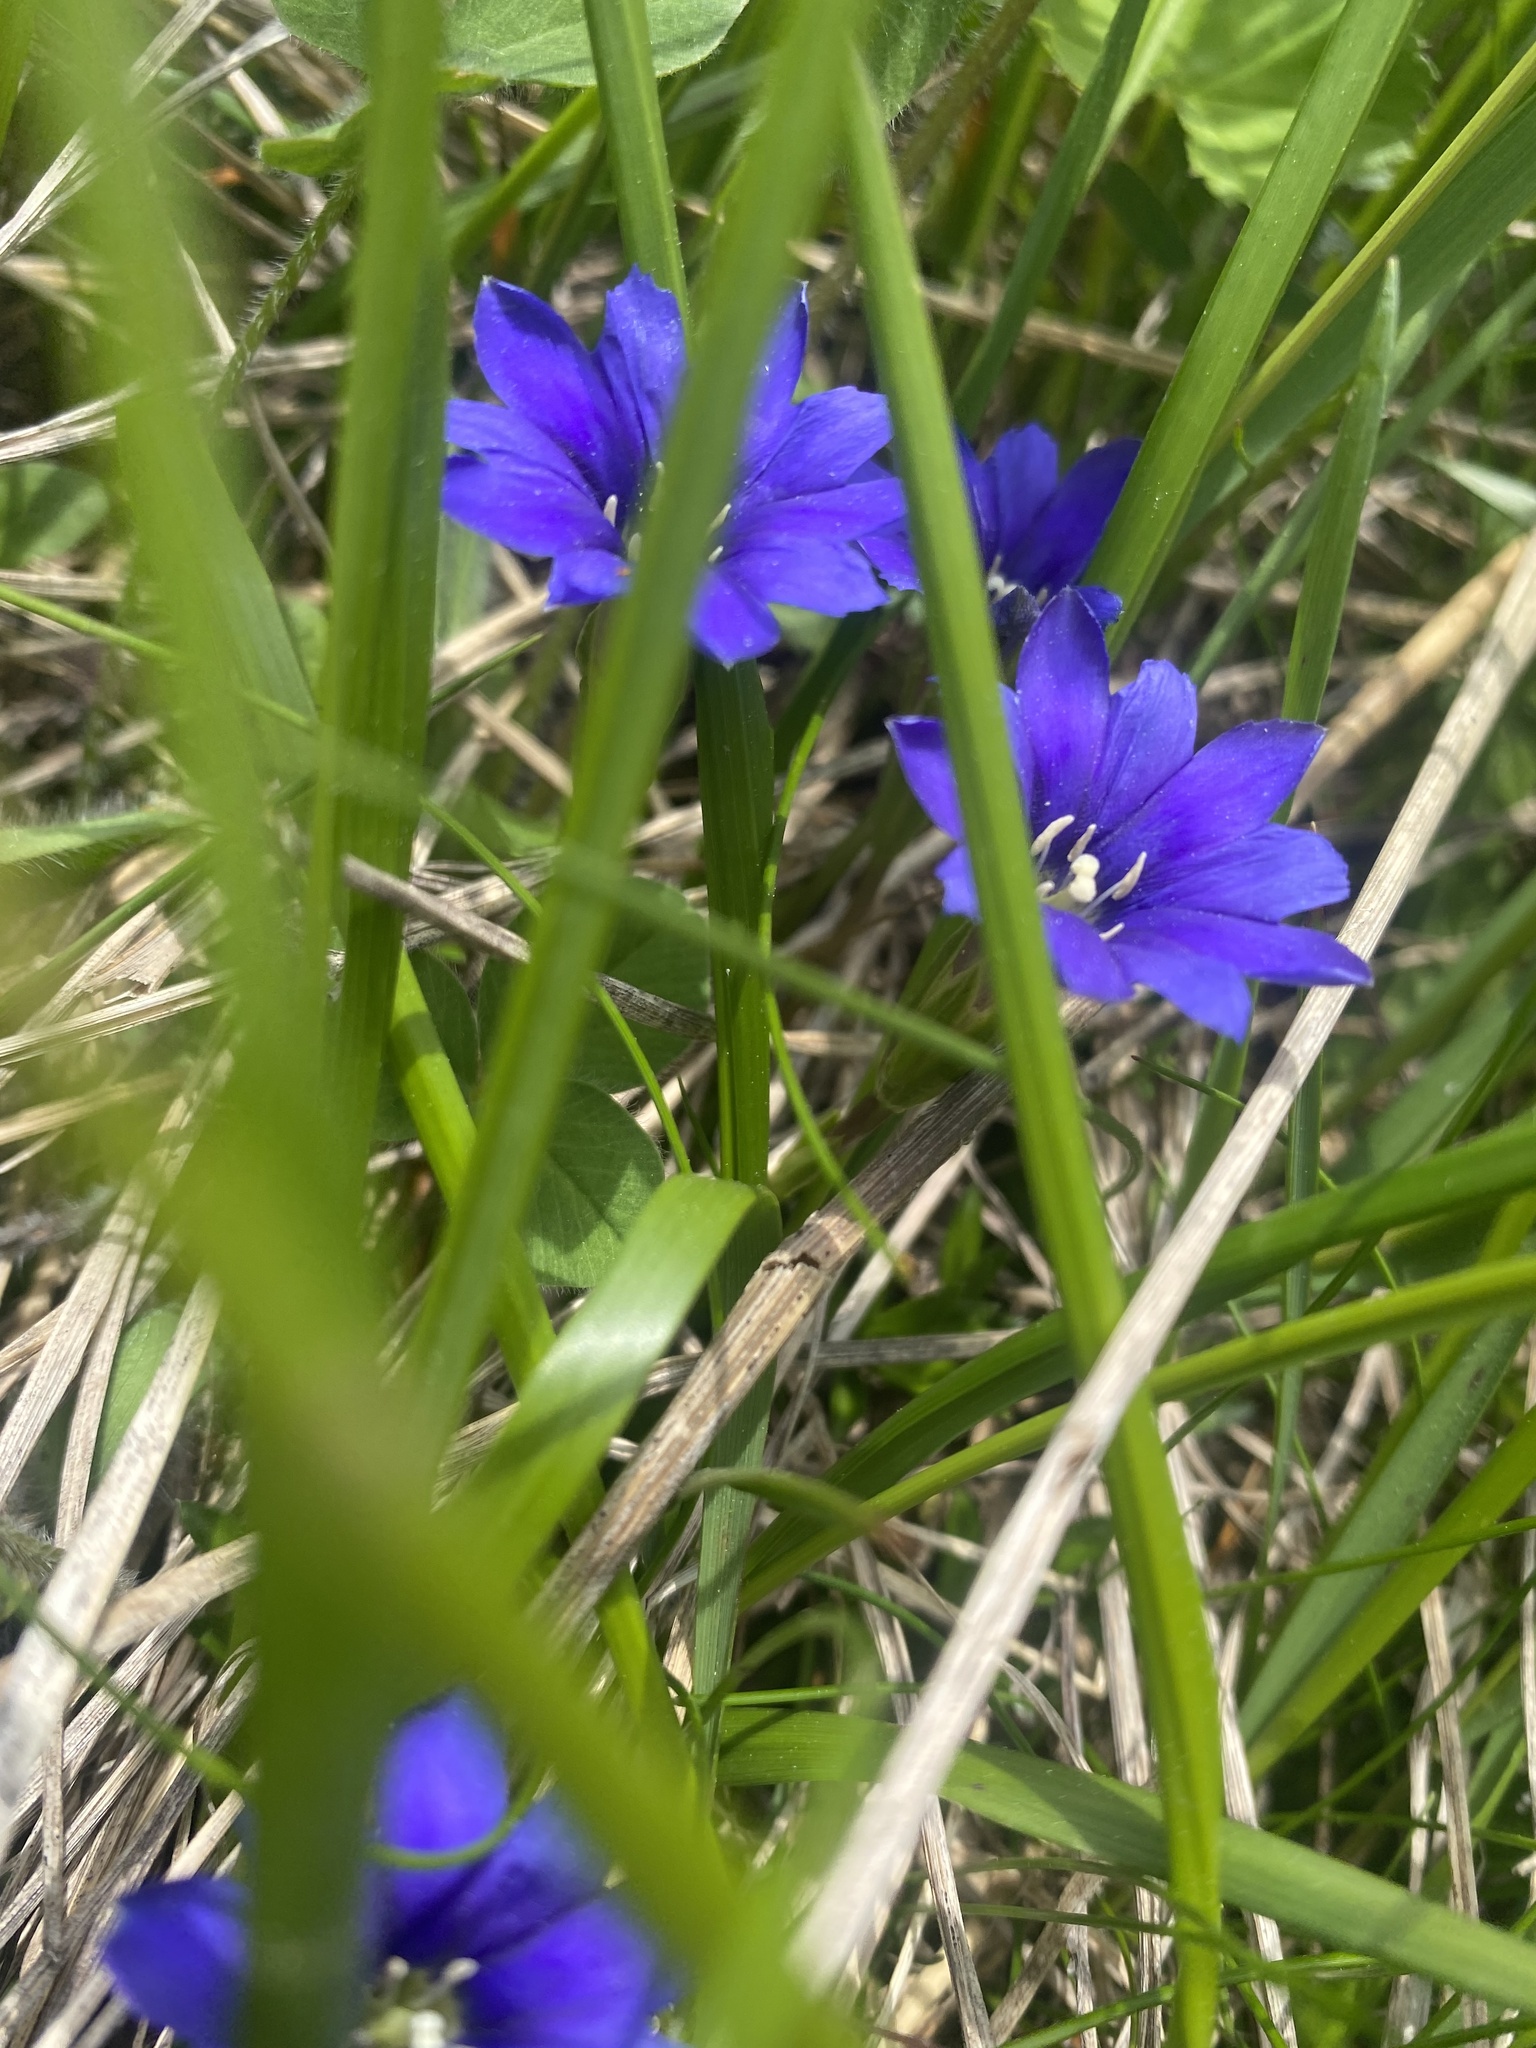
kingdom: Plantae
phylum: Tracheophyta
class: Magnoliopsida
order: Gentianales
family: Gentianaceae
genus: Gentiana
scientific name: Gentiana dshimilensis
